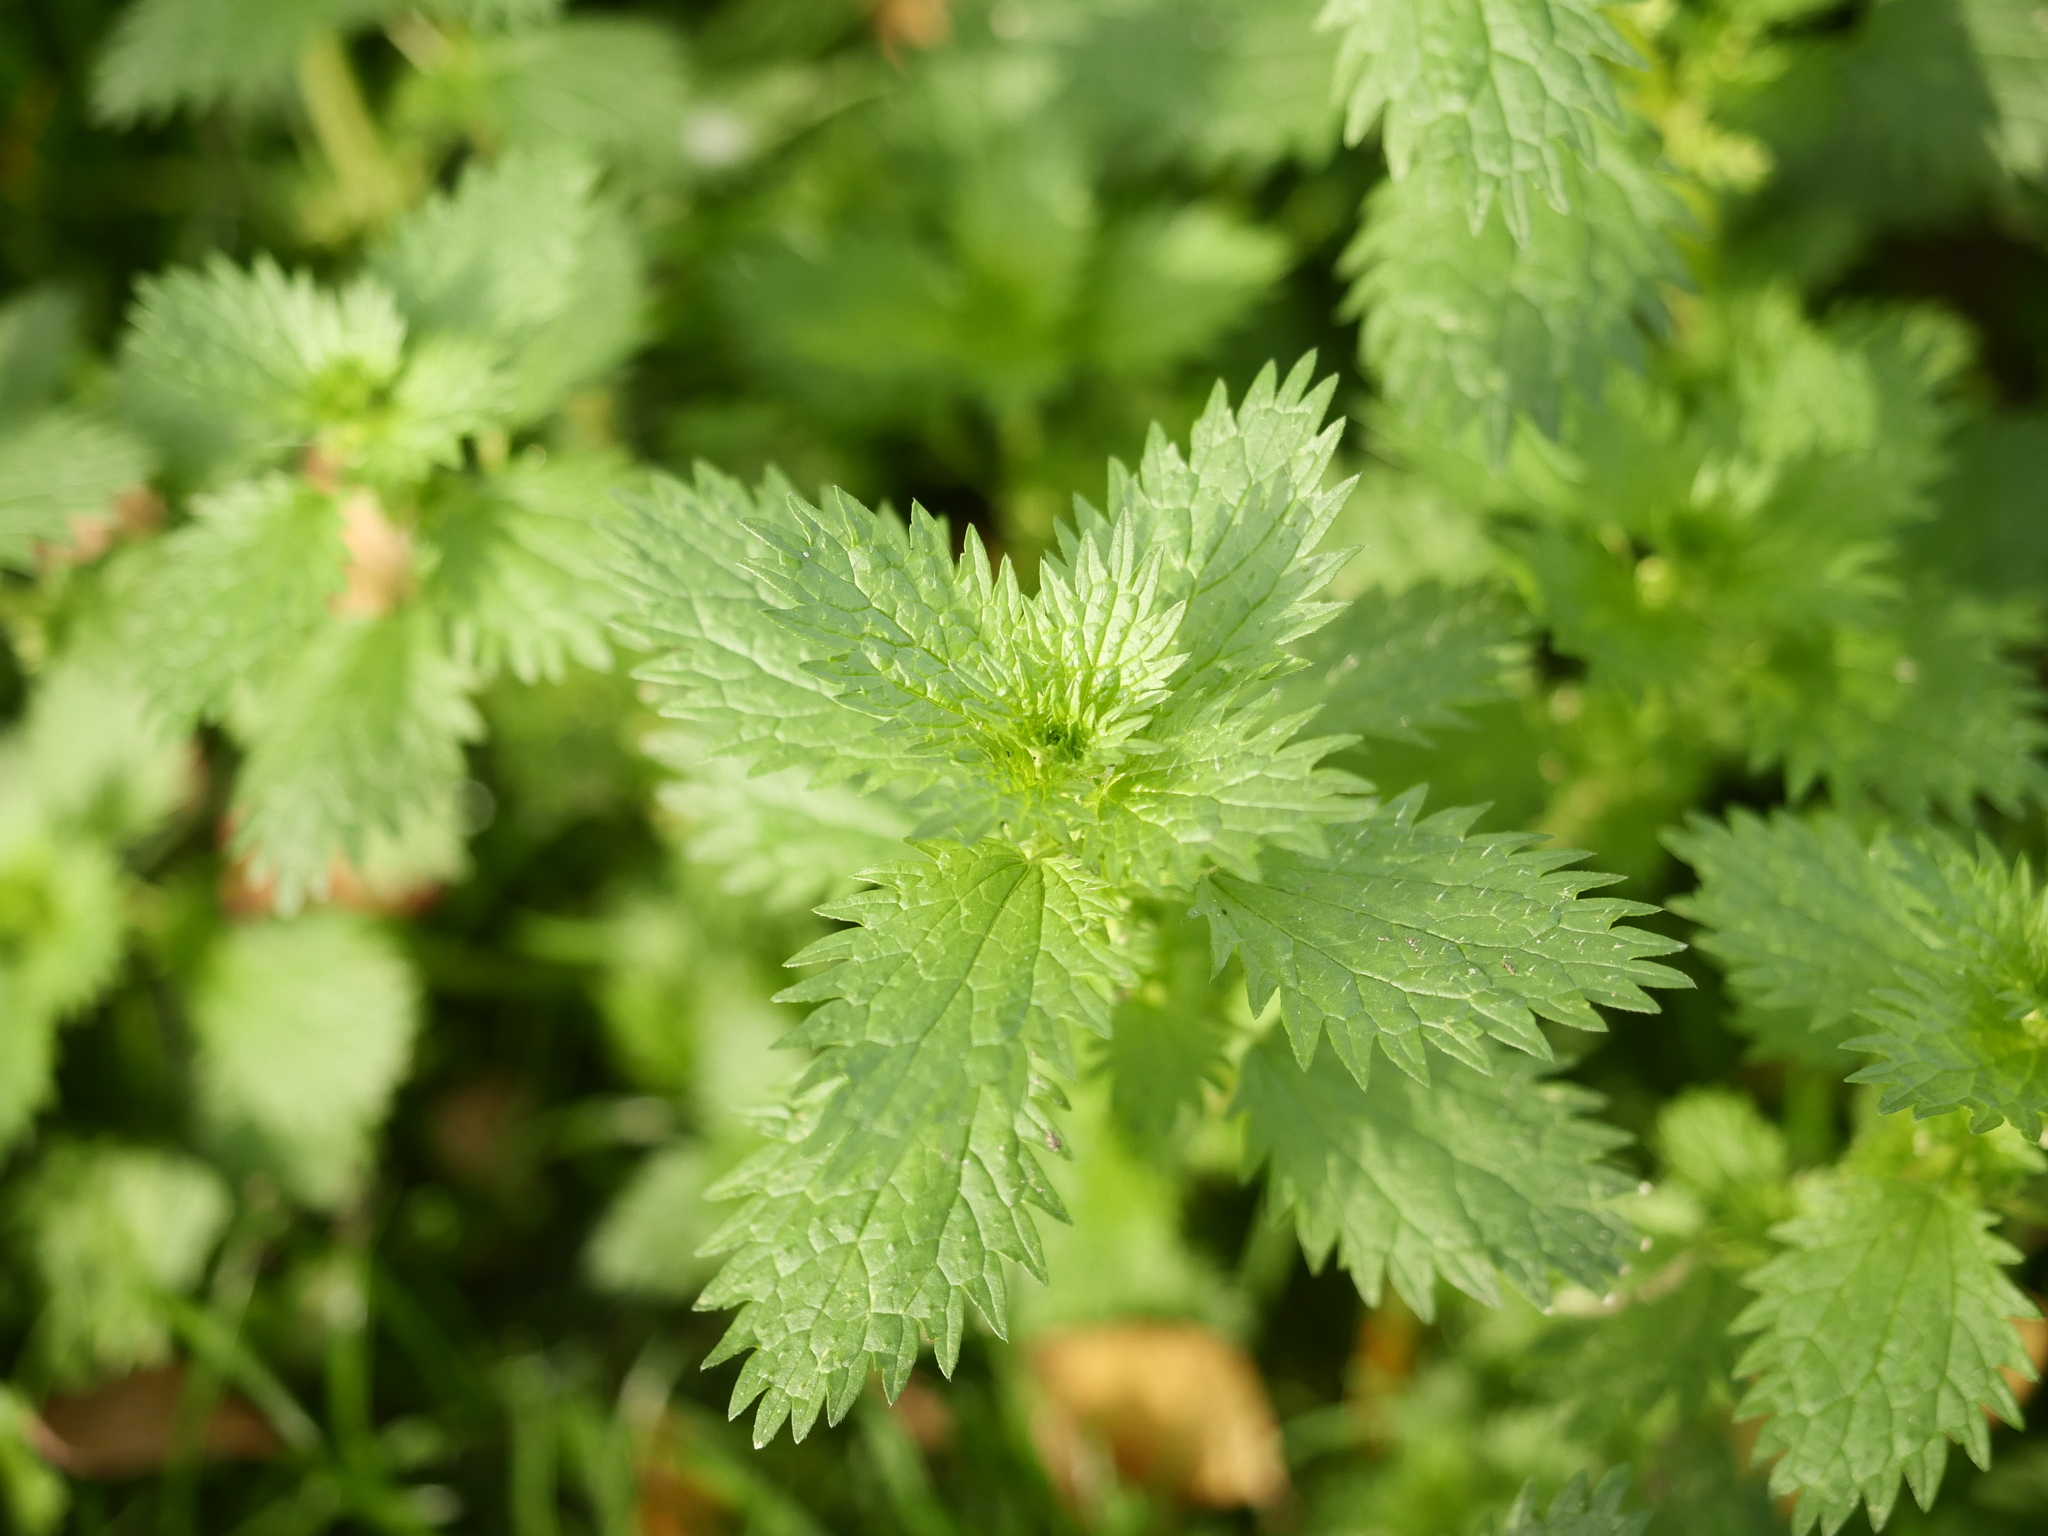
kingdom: Plantae
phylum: Tracheophyta
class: Magnoliopsida
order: Rosales
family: Urticaceae
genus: Urtica
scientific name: Urtica urens
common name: Dwarf nettle
